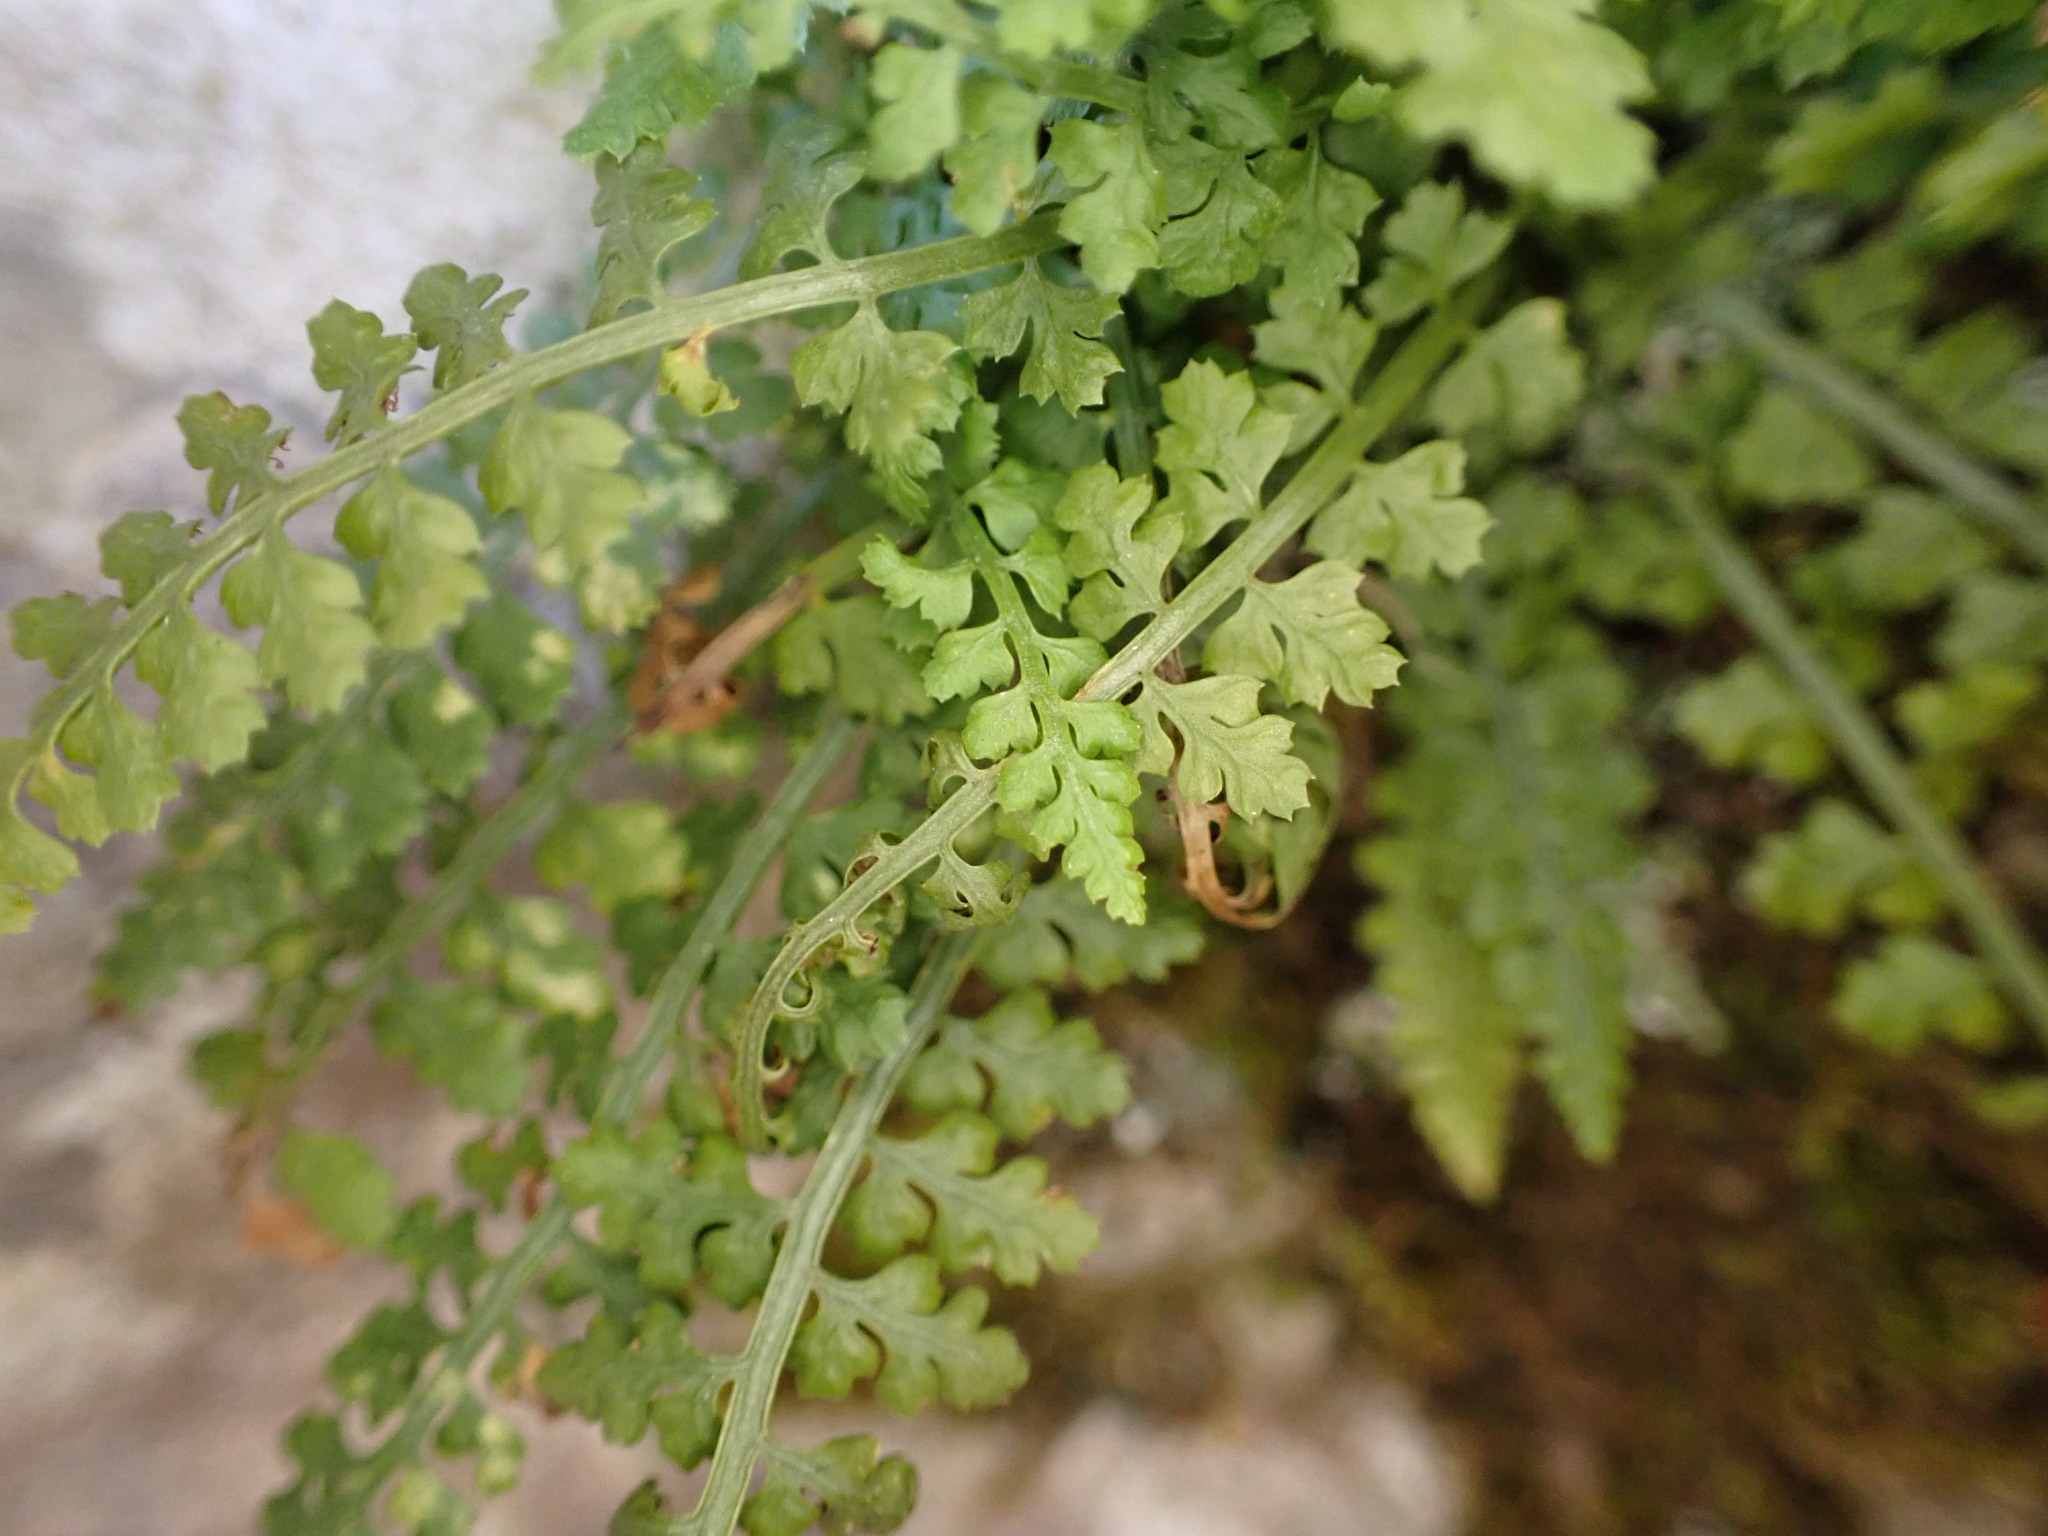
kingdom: Plantae
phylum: Tracheophyta
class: Polypodiopsida
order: Polypodiales
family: Aspleniaceae
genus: Asplenium
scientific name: Asplenium fontanum
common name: Fountain spleenwort
